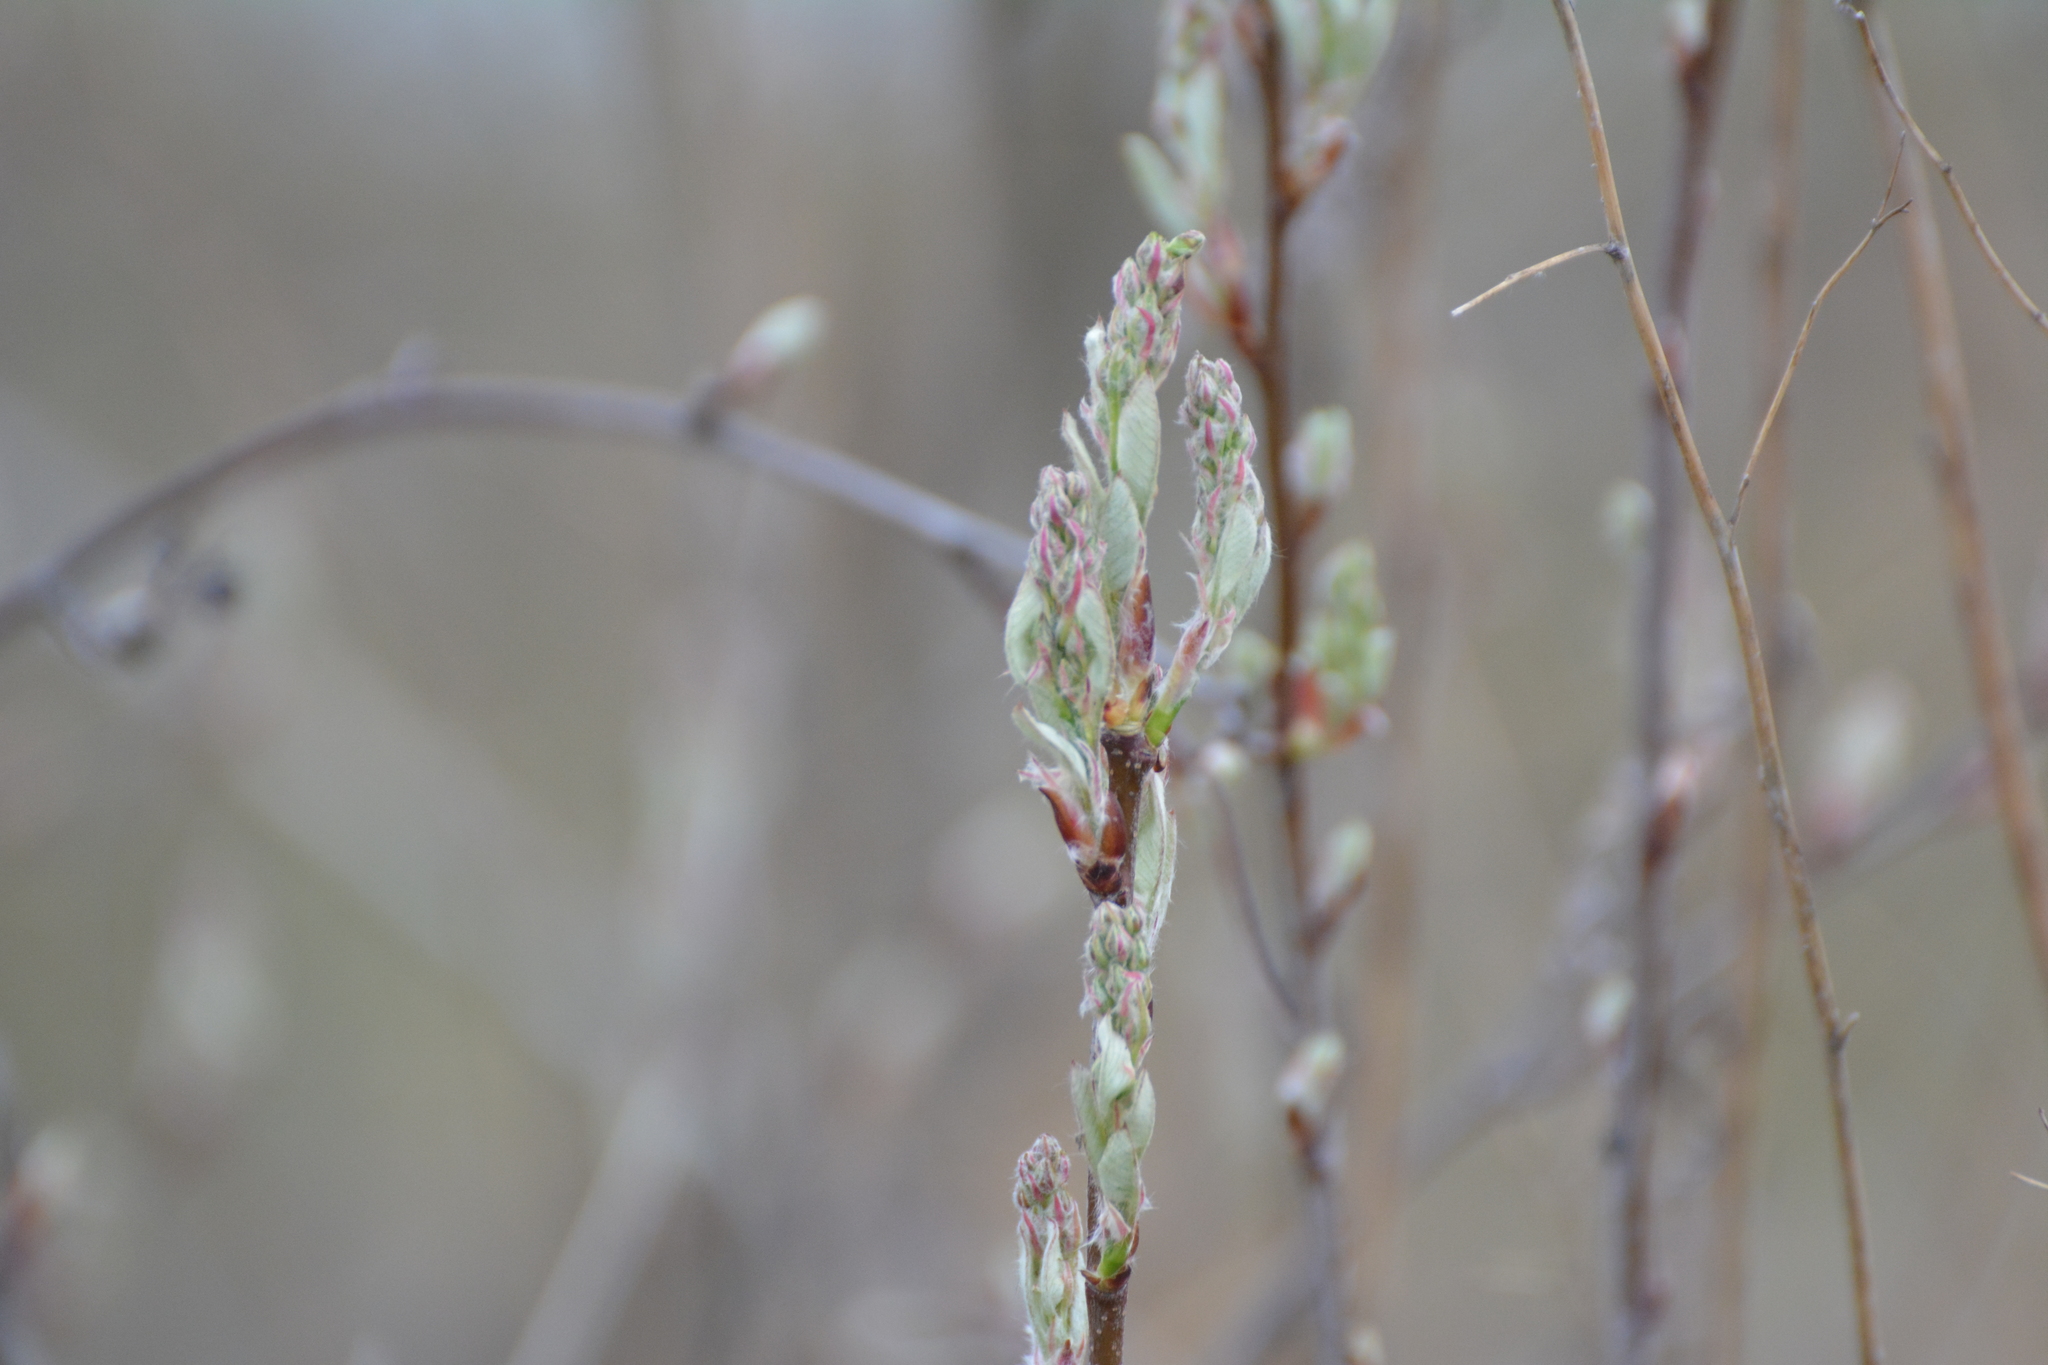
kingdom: Plantae
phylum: Tracheophyta
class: Magnoliopsida
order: Rosales
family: Rosaceae
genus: Amelanchier
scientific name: Amelanchier
